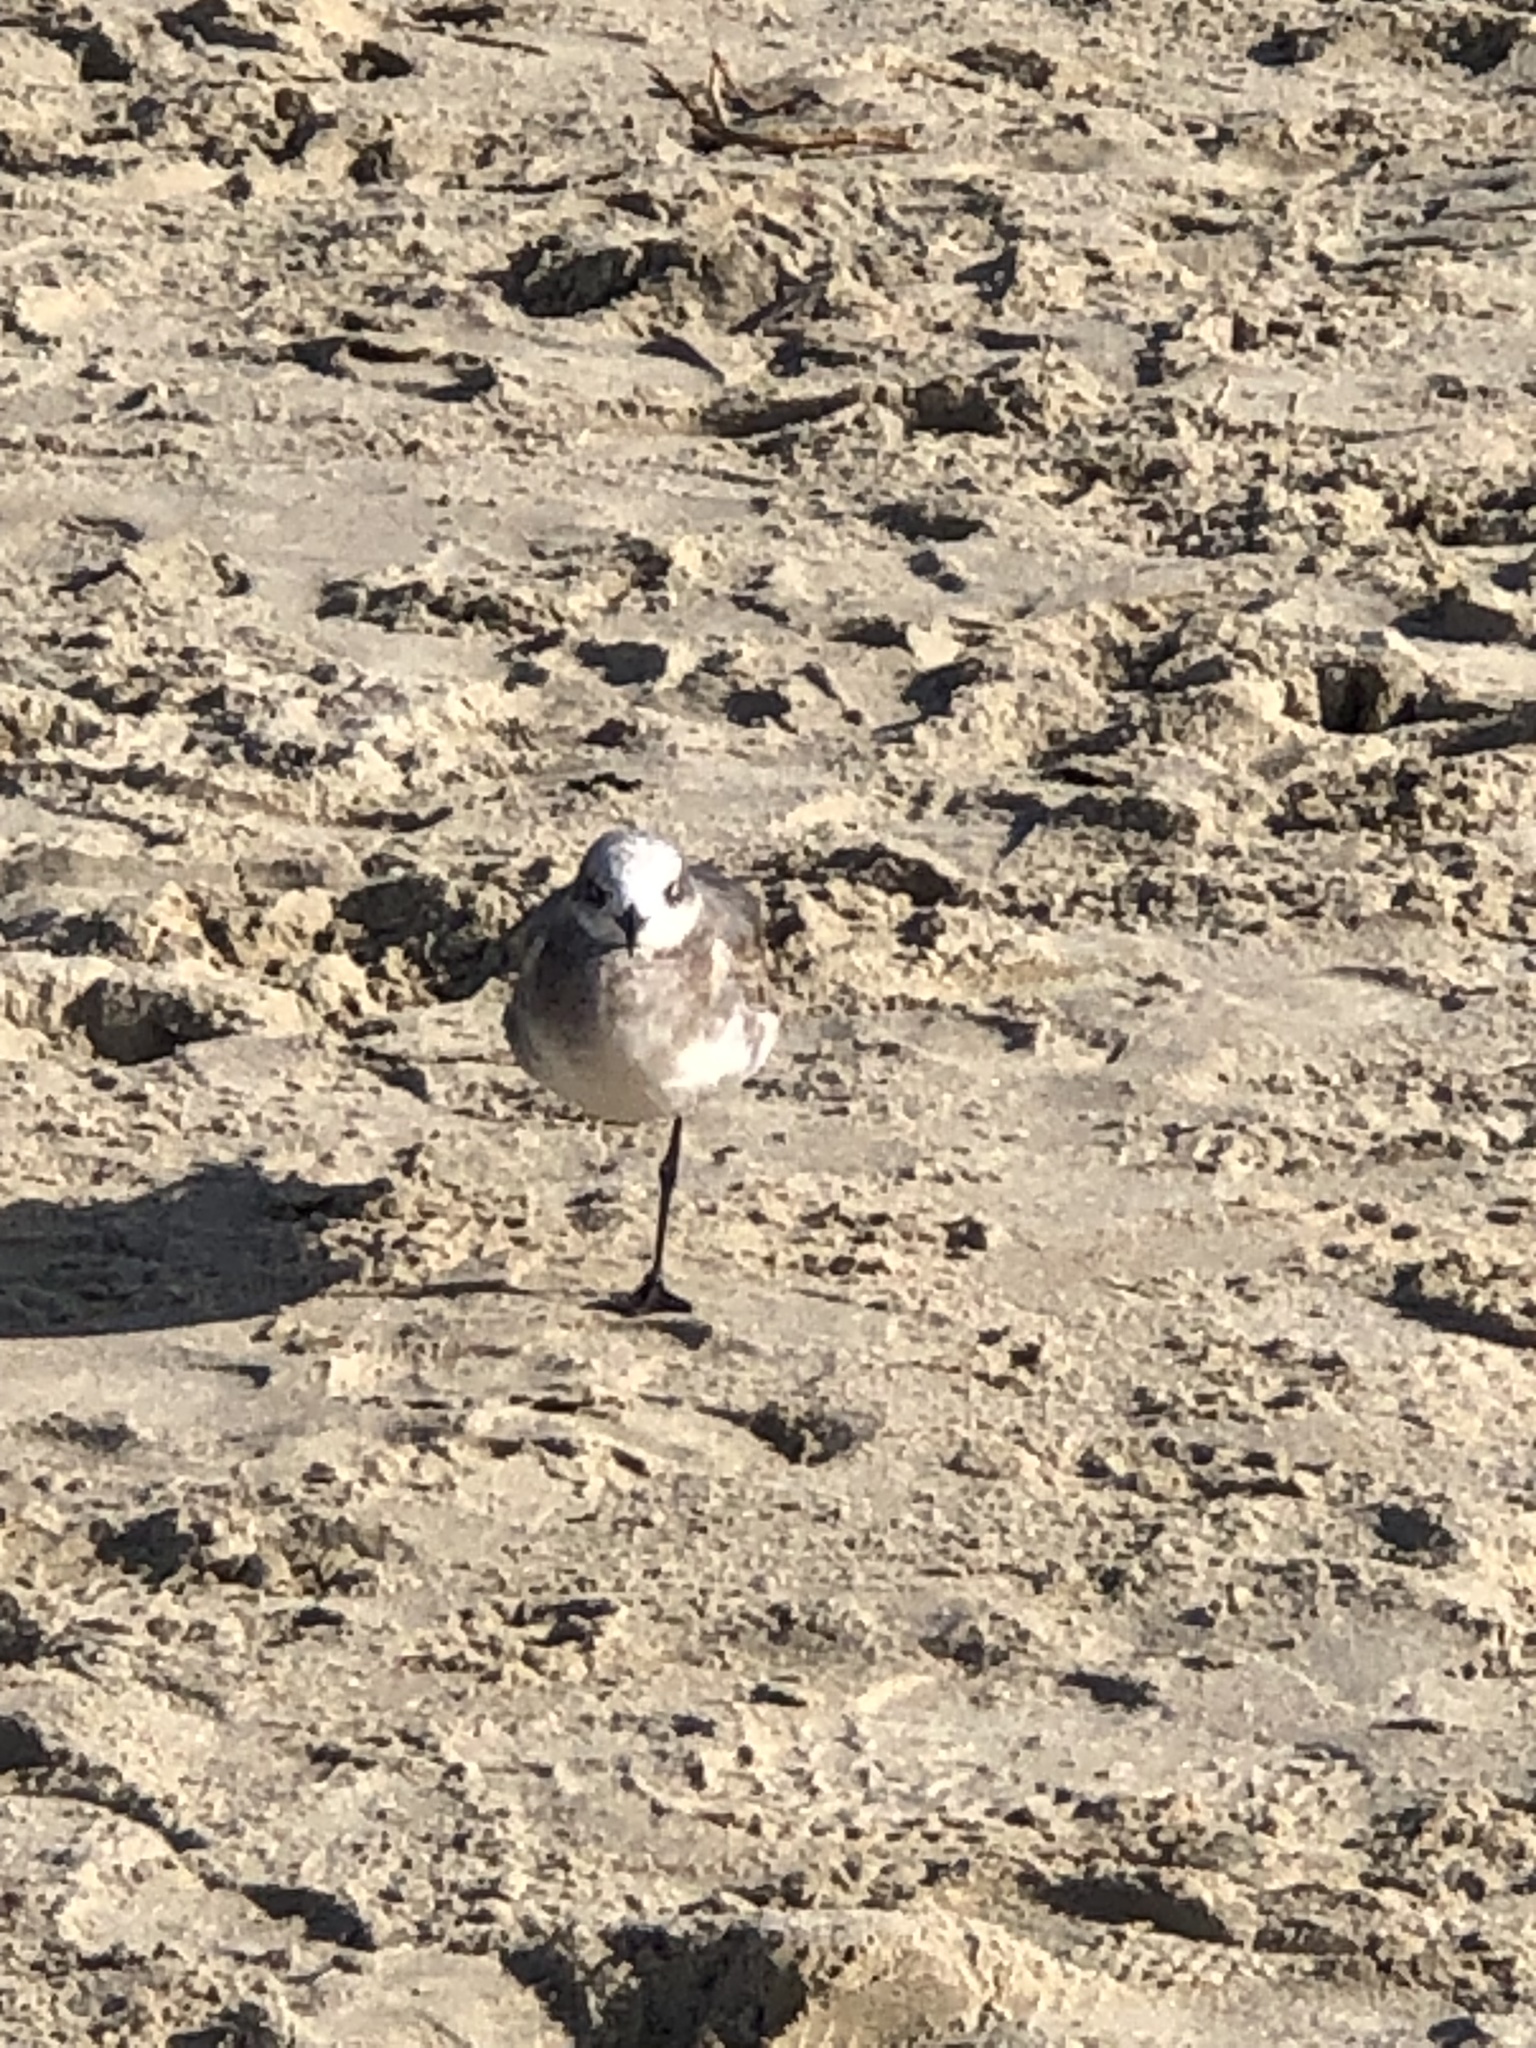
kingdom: Animalia
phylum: Chordata
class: Aves
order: Charadriiformes
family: Laridae
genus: Leucophaeus
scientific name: Leucophaeus atricilla
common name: Laughing gull
